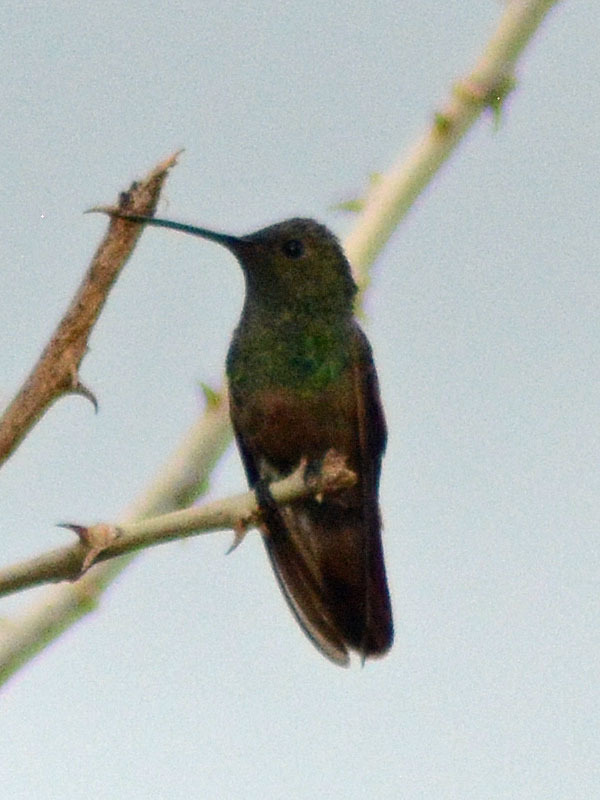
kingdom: Animalia
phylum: Chordata
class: Aves
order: Apodiformes
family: Trochilidae
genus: Saucerottia
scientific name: Saucerottia beryllina
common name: Berylline hummingbird
